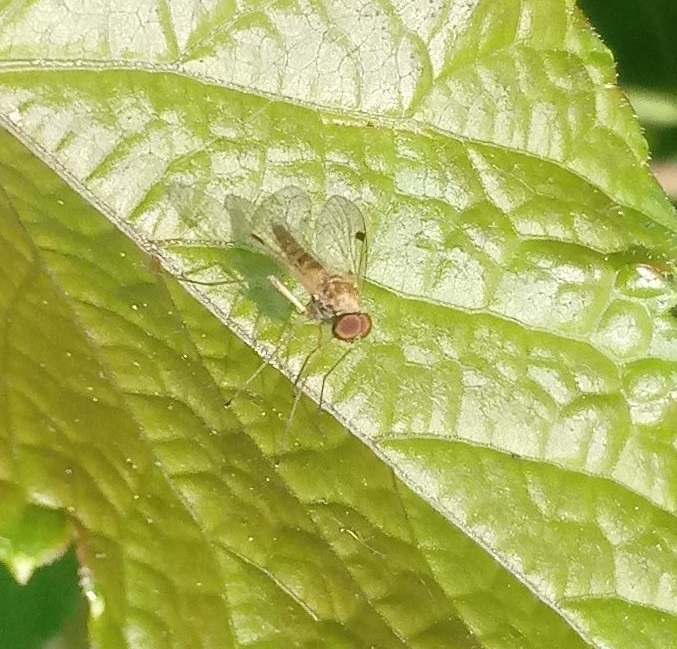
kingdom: Animalia
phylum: Arthropoda
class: Insecta
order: Diptera
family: Rhagionidae
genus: Chrysopilus
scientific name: Chrysopilus modestus
